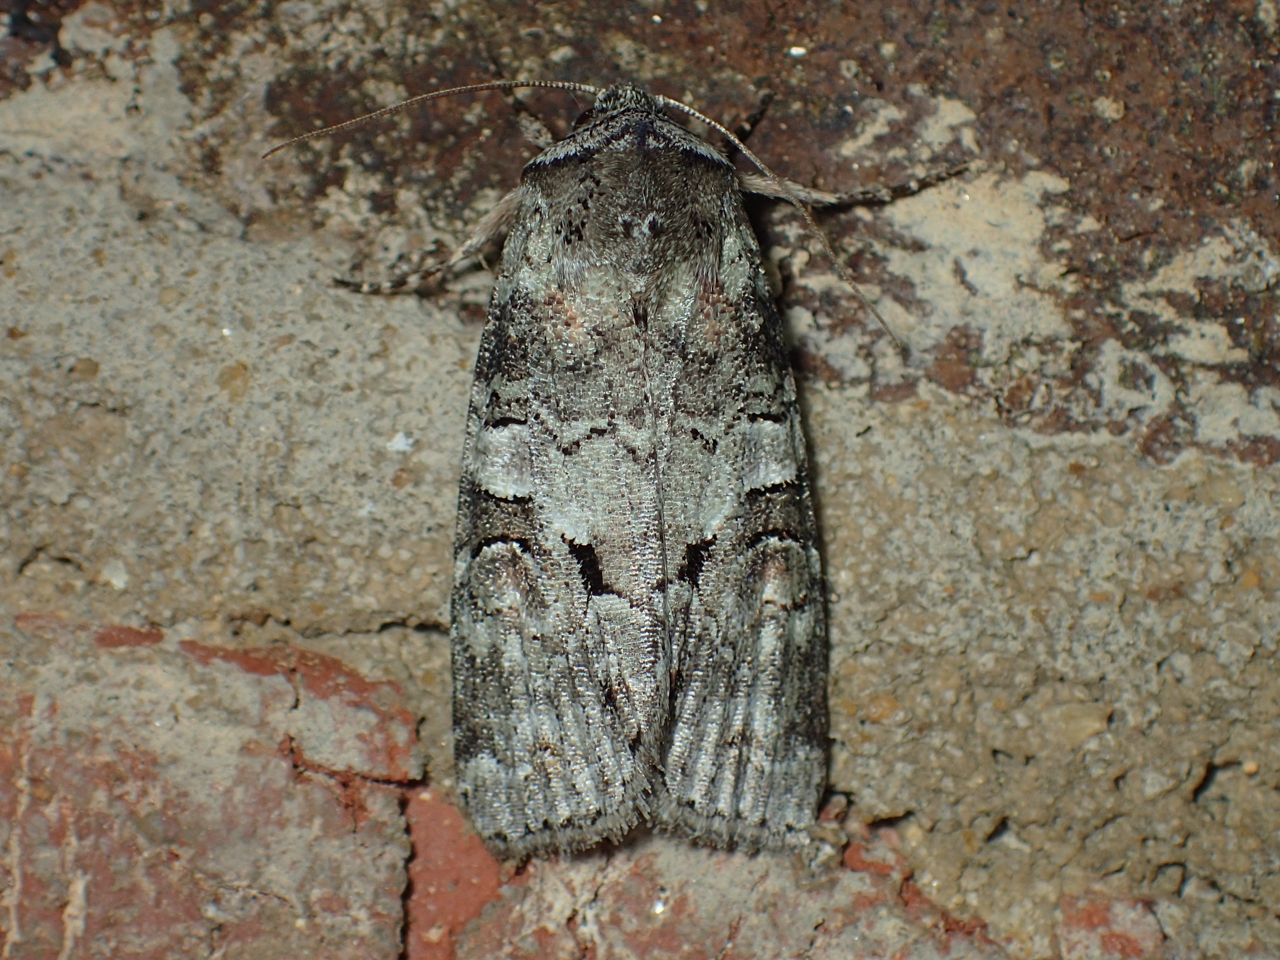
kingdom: Animalia
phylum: Arthropoda
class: Insecta
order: Lepidoptera
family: Noctuidae
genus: Egira
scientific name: Egira alternans
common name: Alternate woodling
